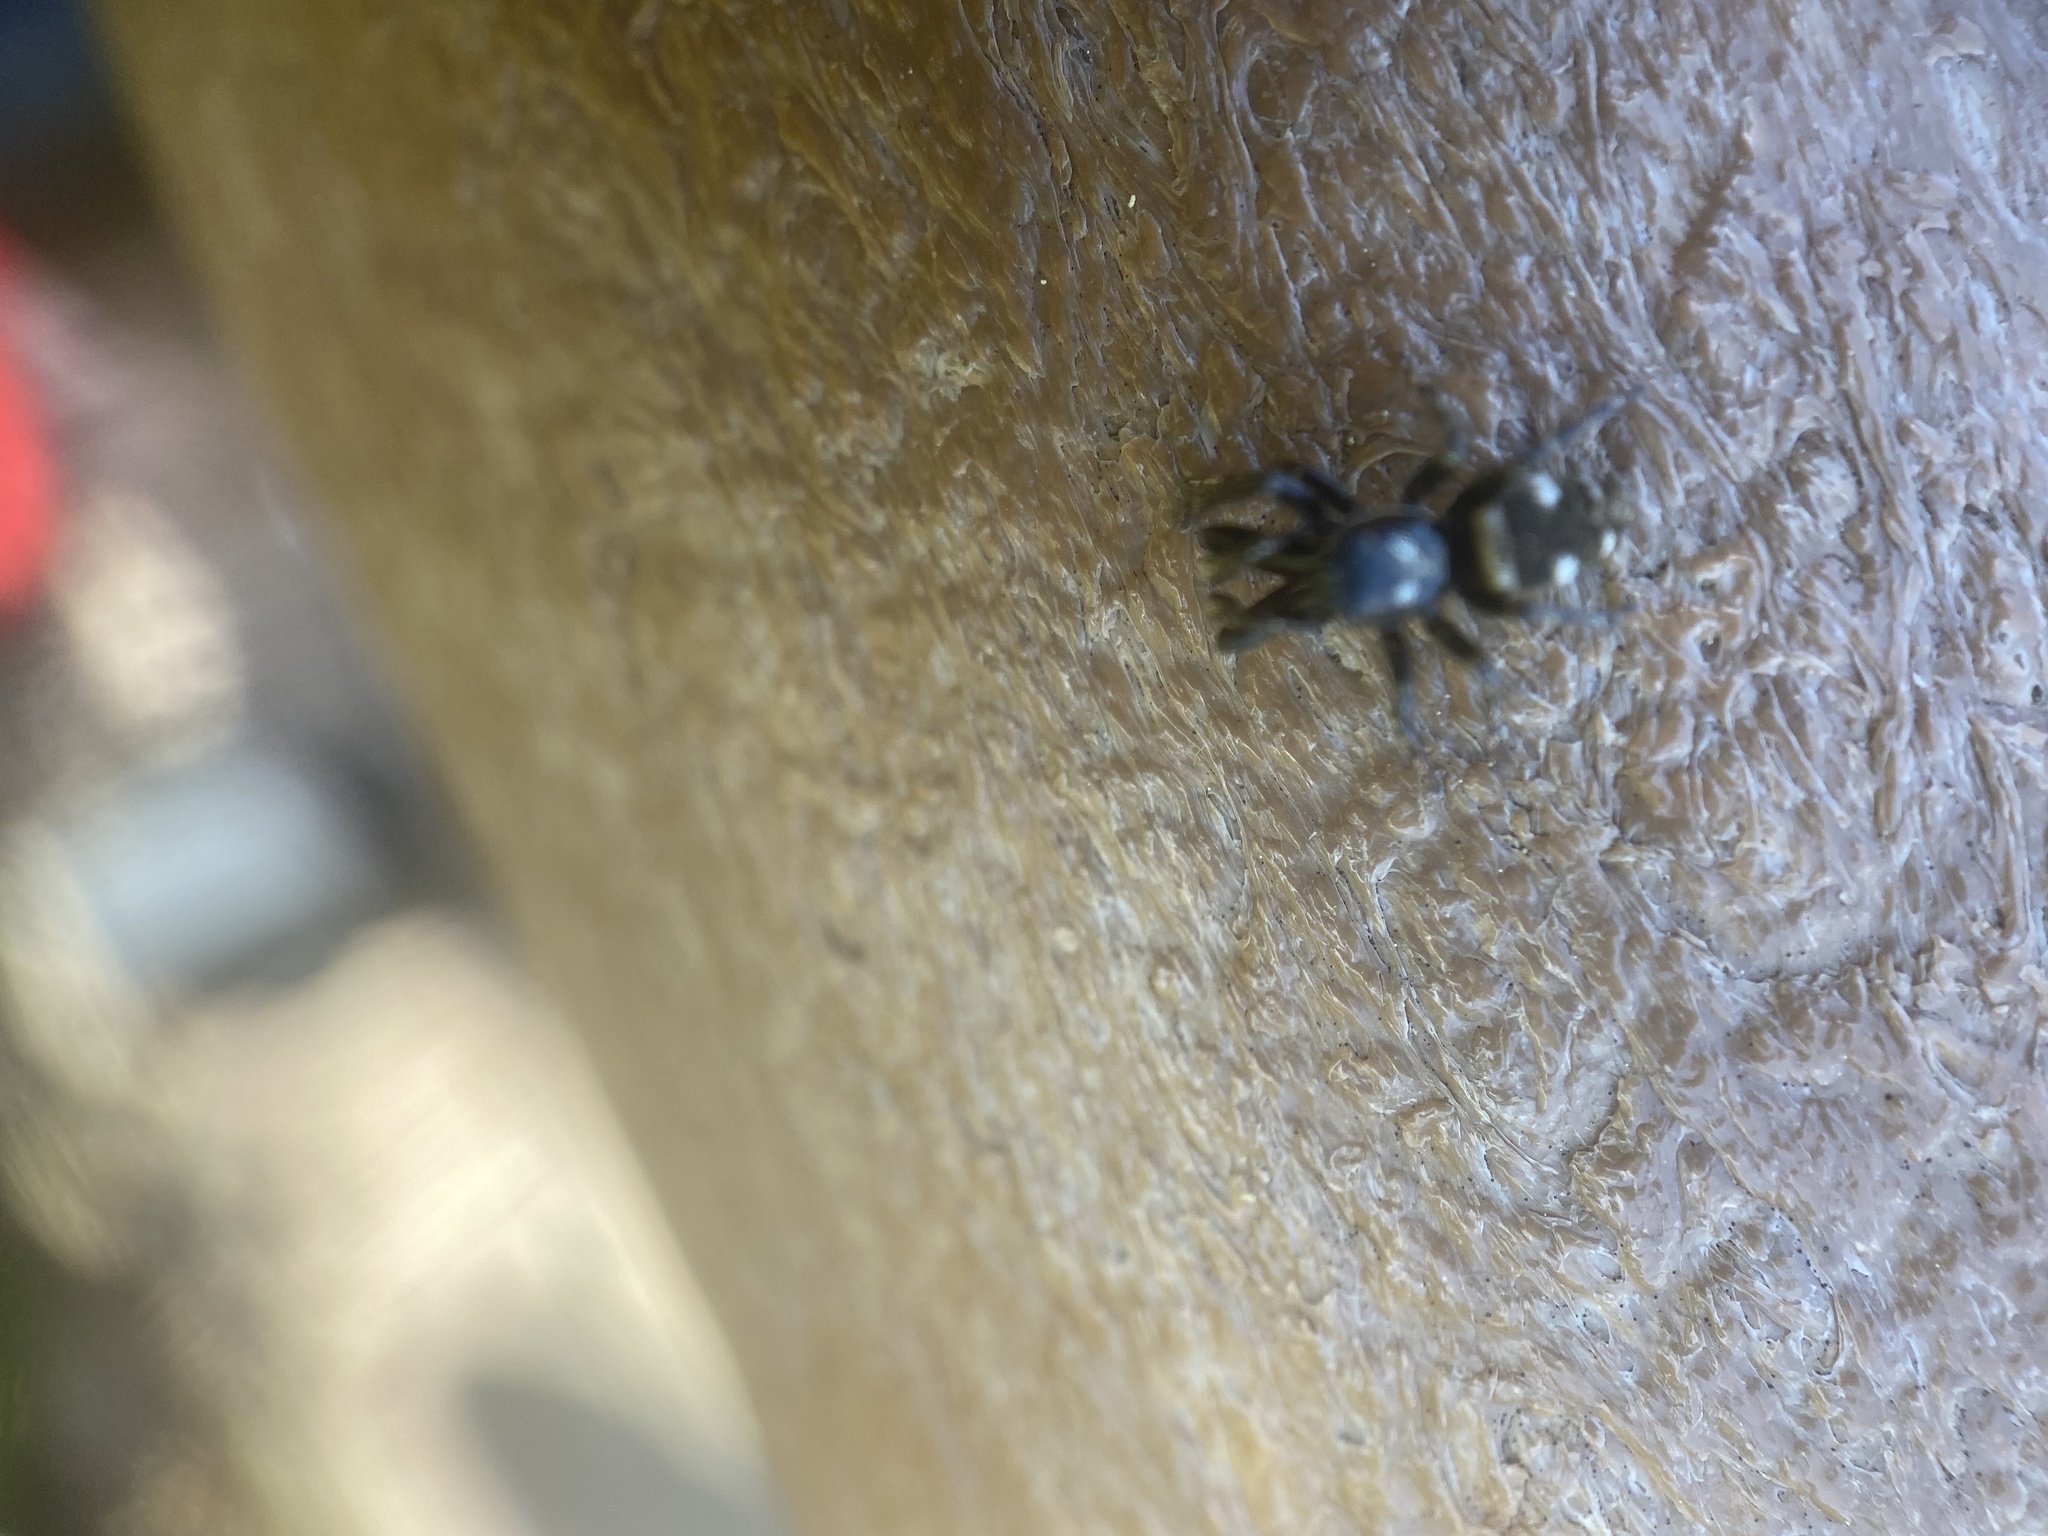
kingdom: Animalia
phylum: Arthropoda
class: Arachnida
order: Araneae
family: Salticidae
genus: Salticus
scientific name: Salticus scenicus
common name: Zebra jumper
